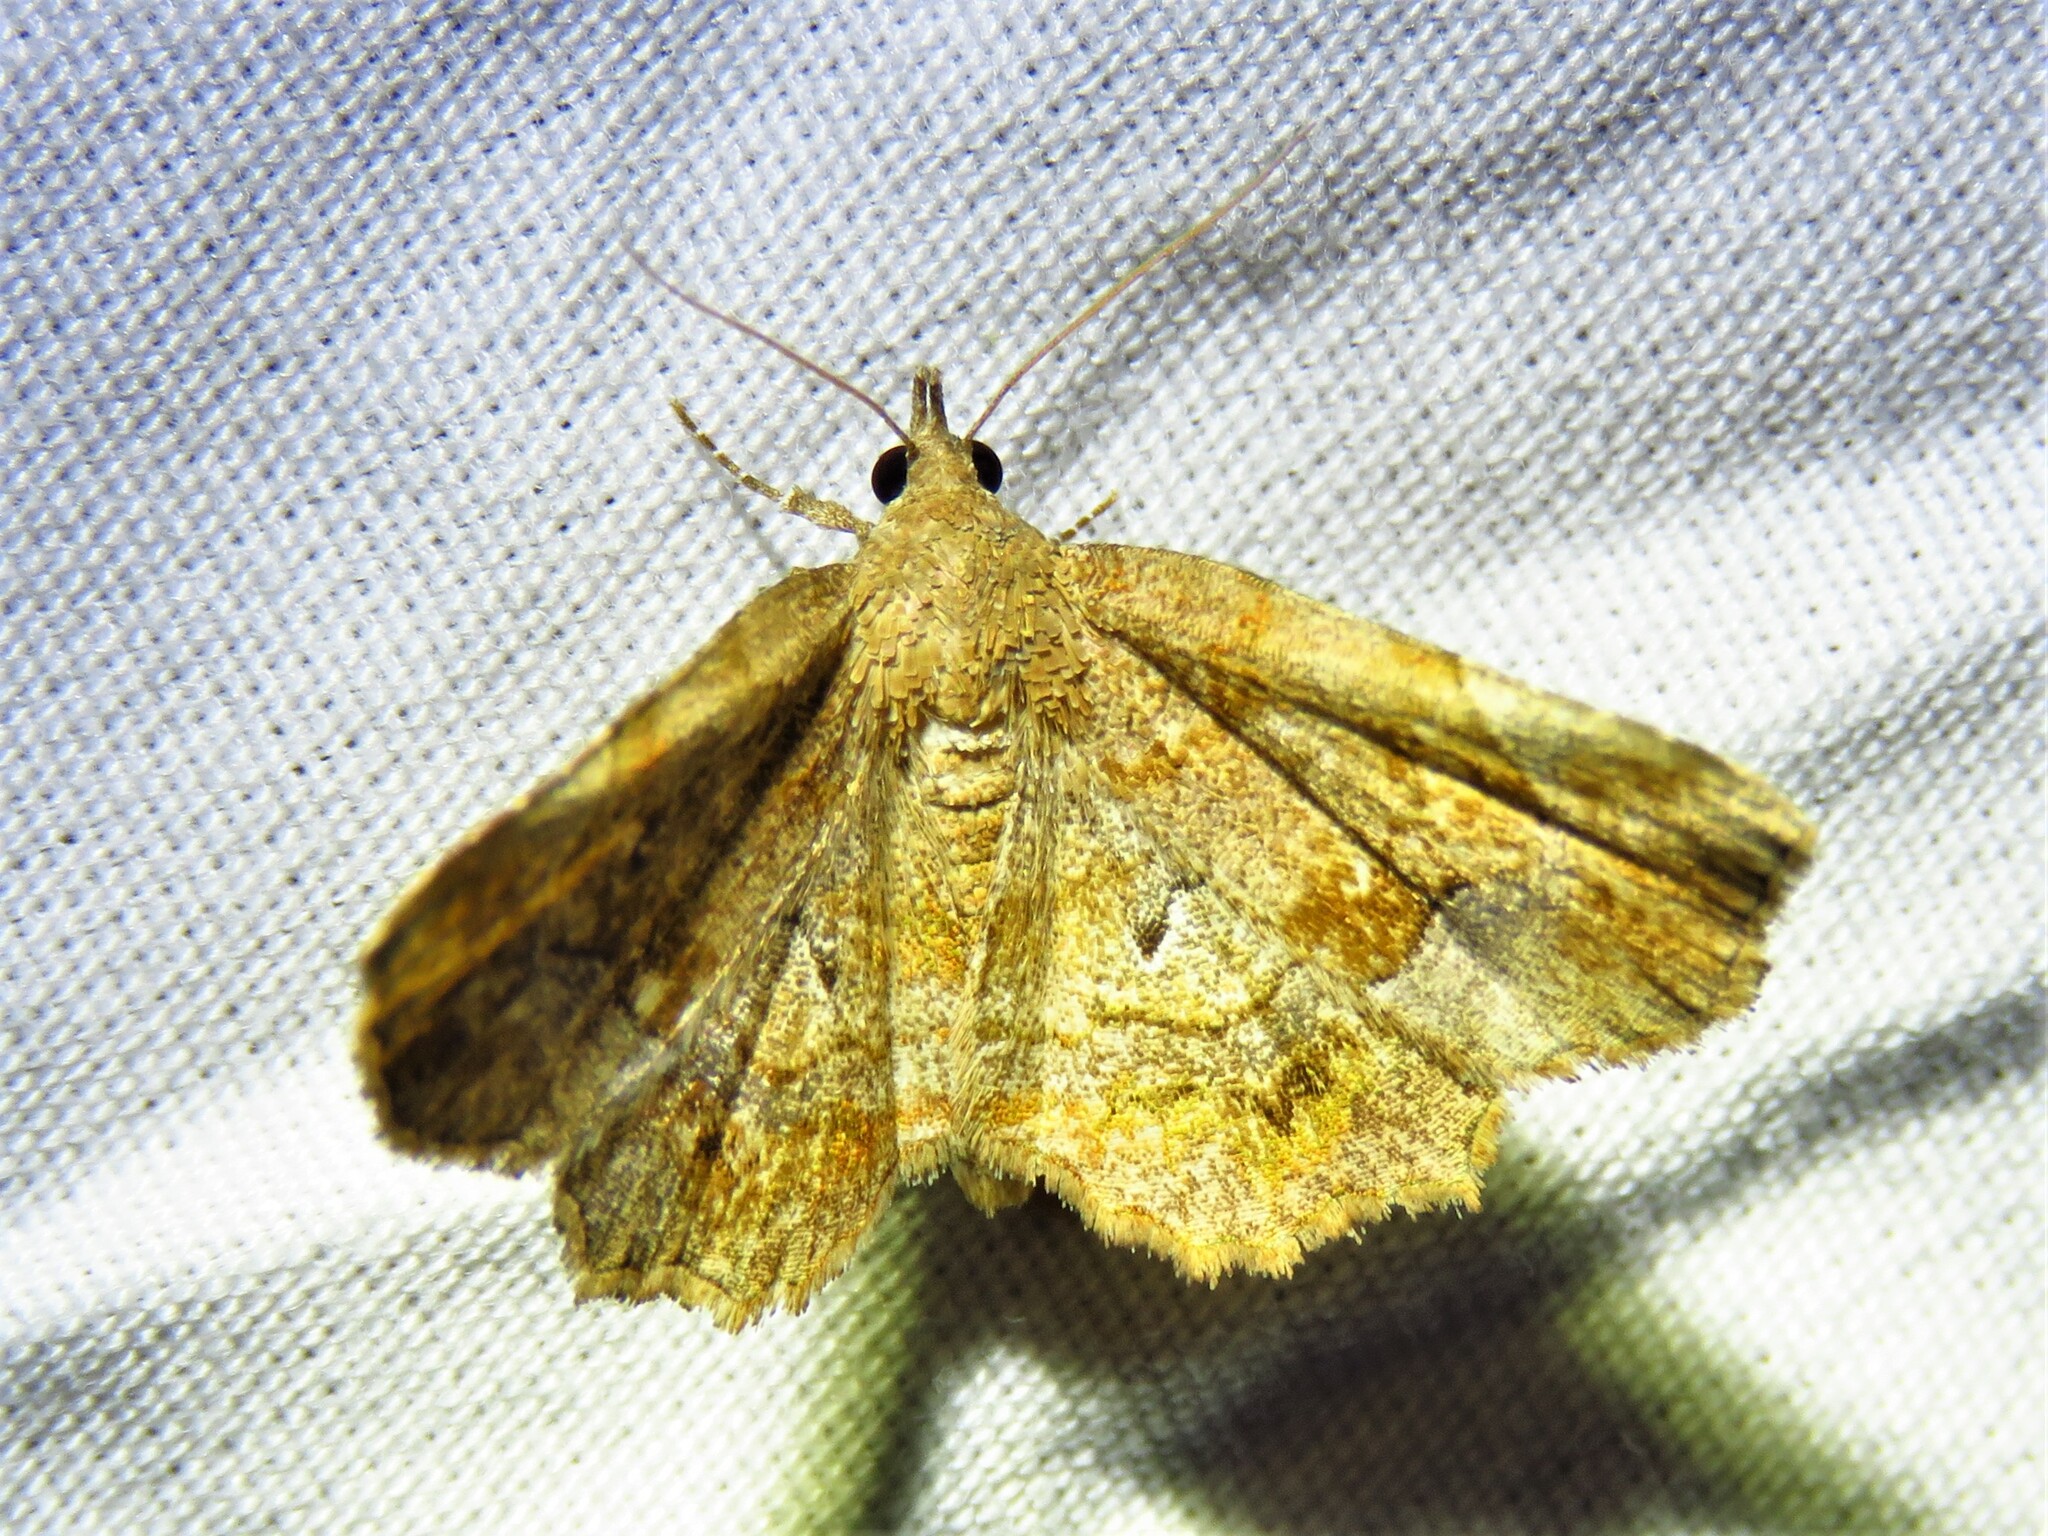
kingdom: Animalia
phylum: Arthropoda
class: Insecta
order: Lepidoptera
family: Erebidae
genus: Pangrapta
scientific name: Pangrapta decoralis
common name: Decorated owlet
